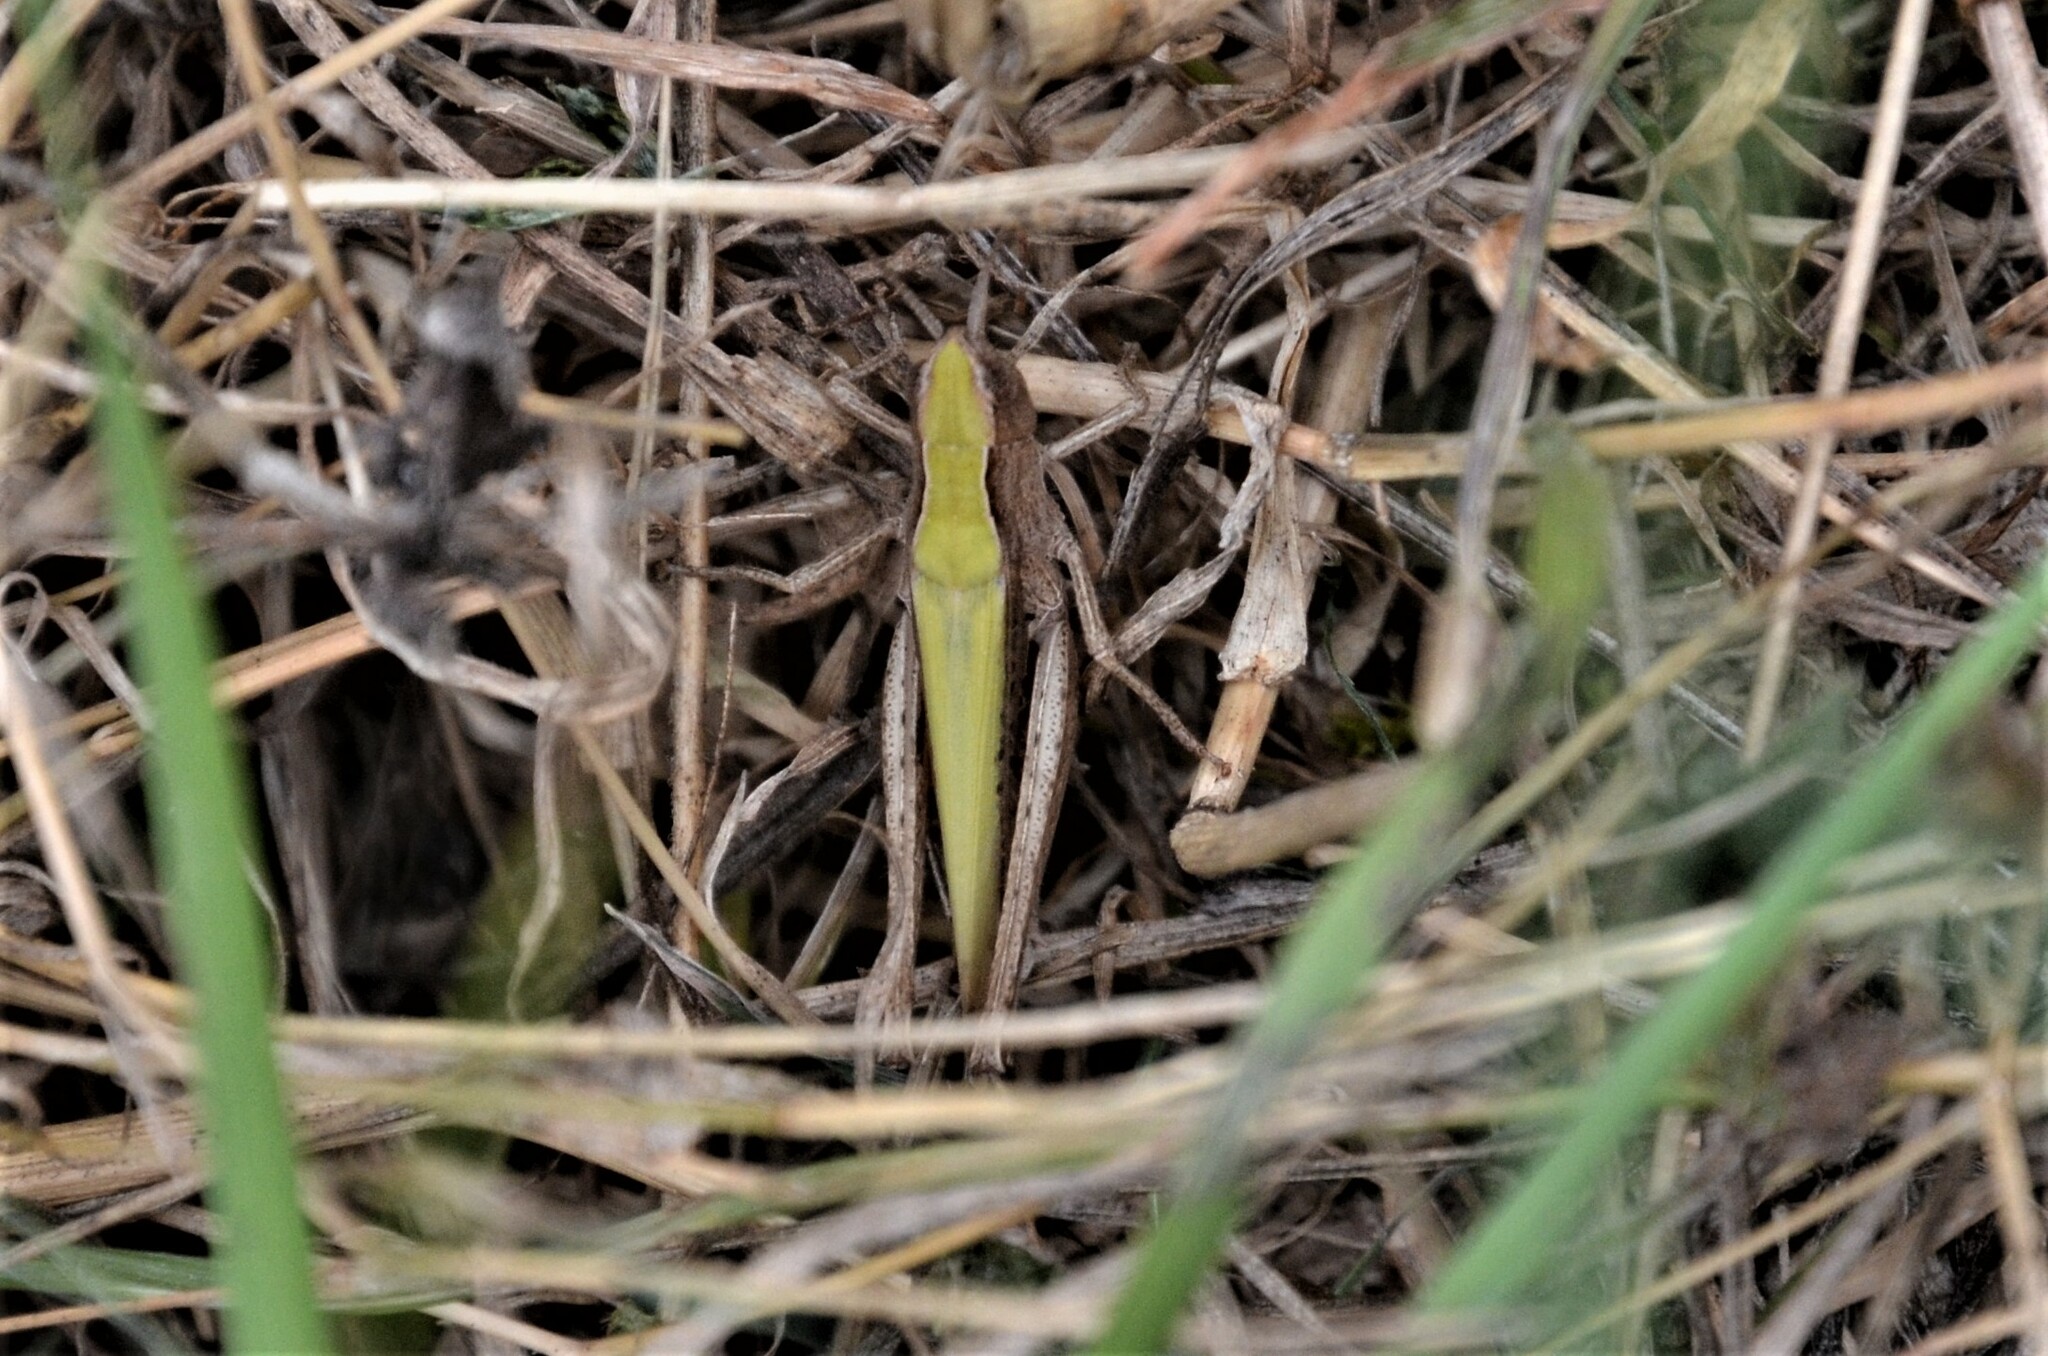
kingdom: Animalia
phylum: Arthropoda
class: Insecta
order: Orthoptera
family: Acrididae
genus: Chorthippus
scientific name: Chorthippus dorsatus
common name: Steppe grasshopper
